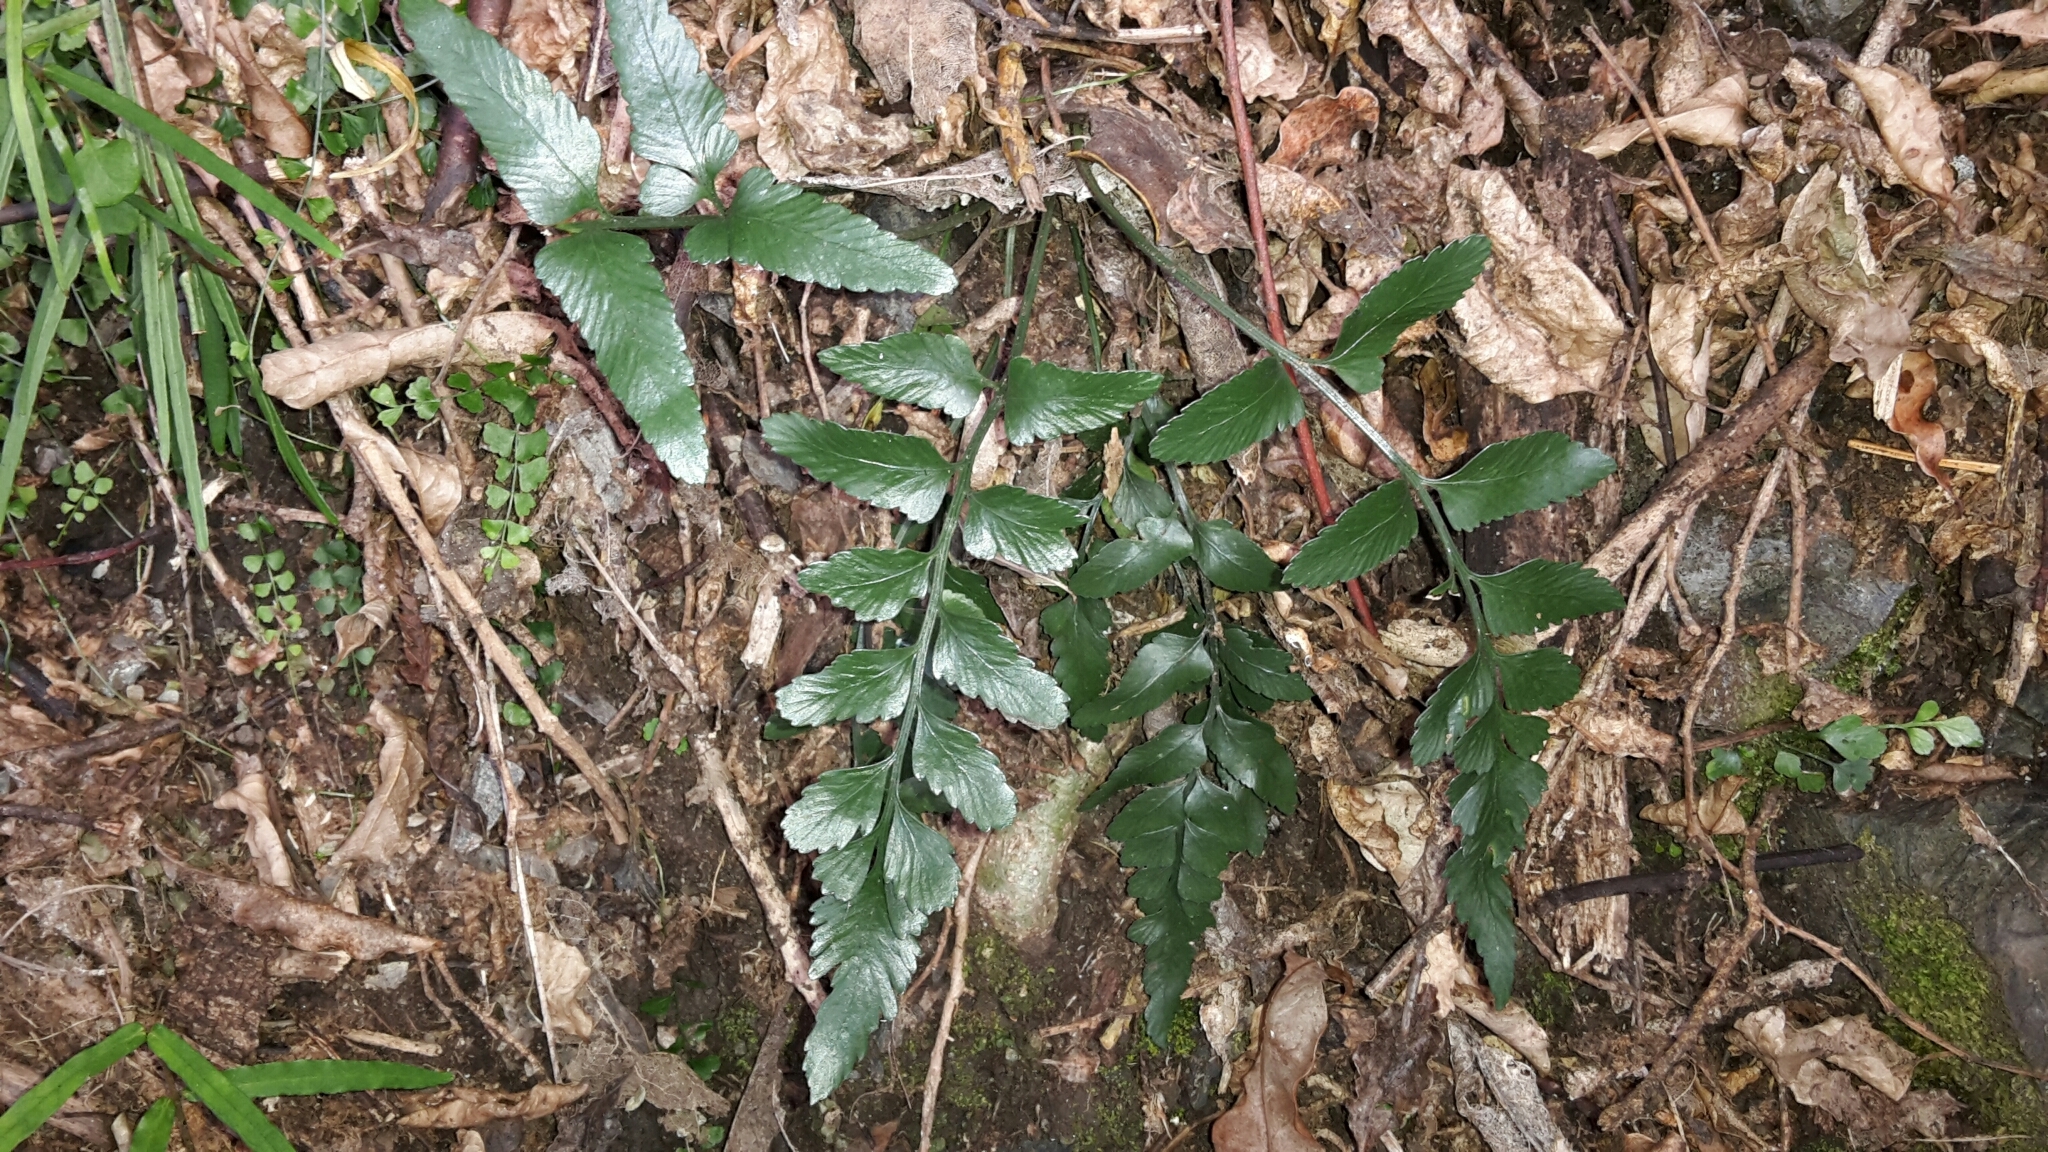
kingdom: Plantae
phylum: Tracheophyta
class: Polypodiopsida
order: Polypodiales
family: Aspleniaceae
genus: Asplenium
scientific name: Asplenium lyallii
